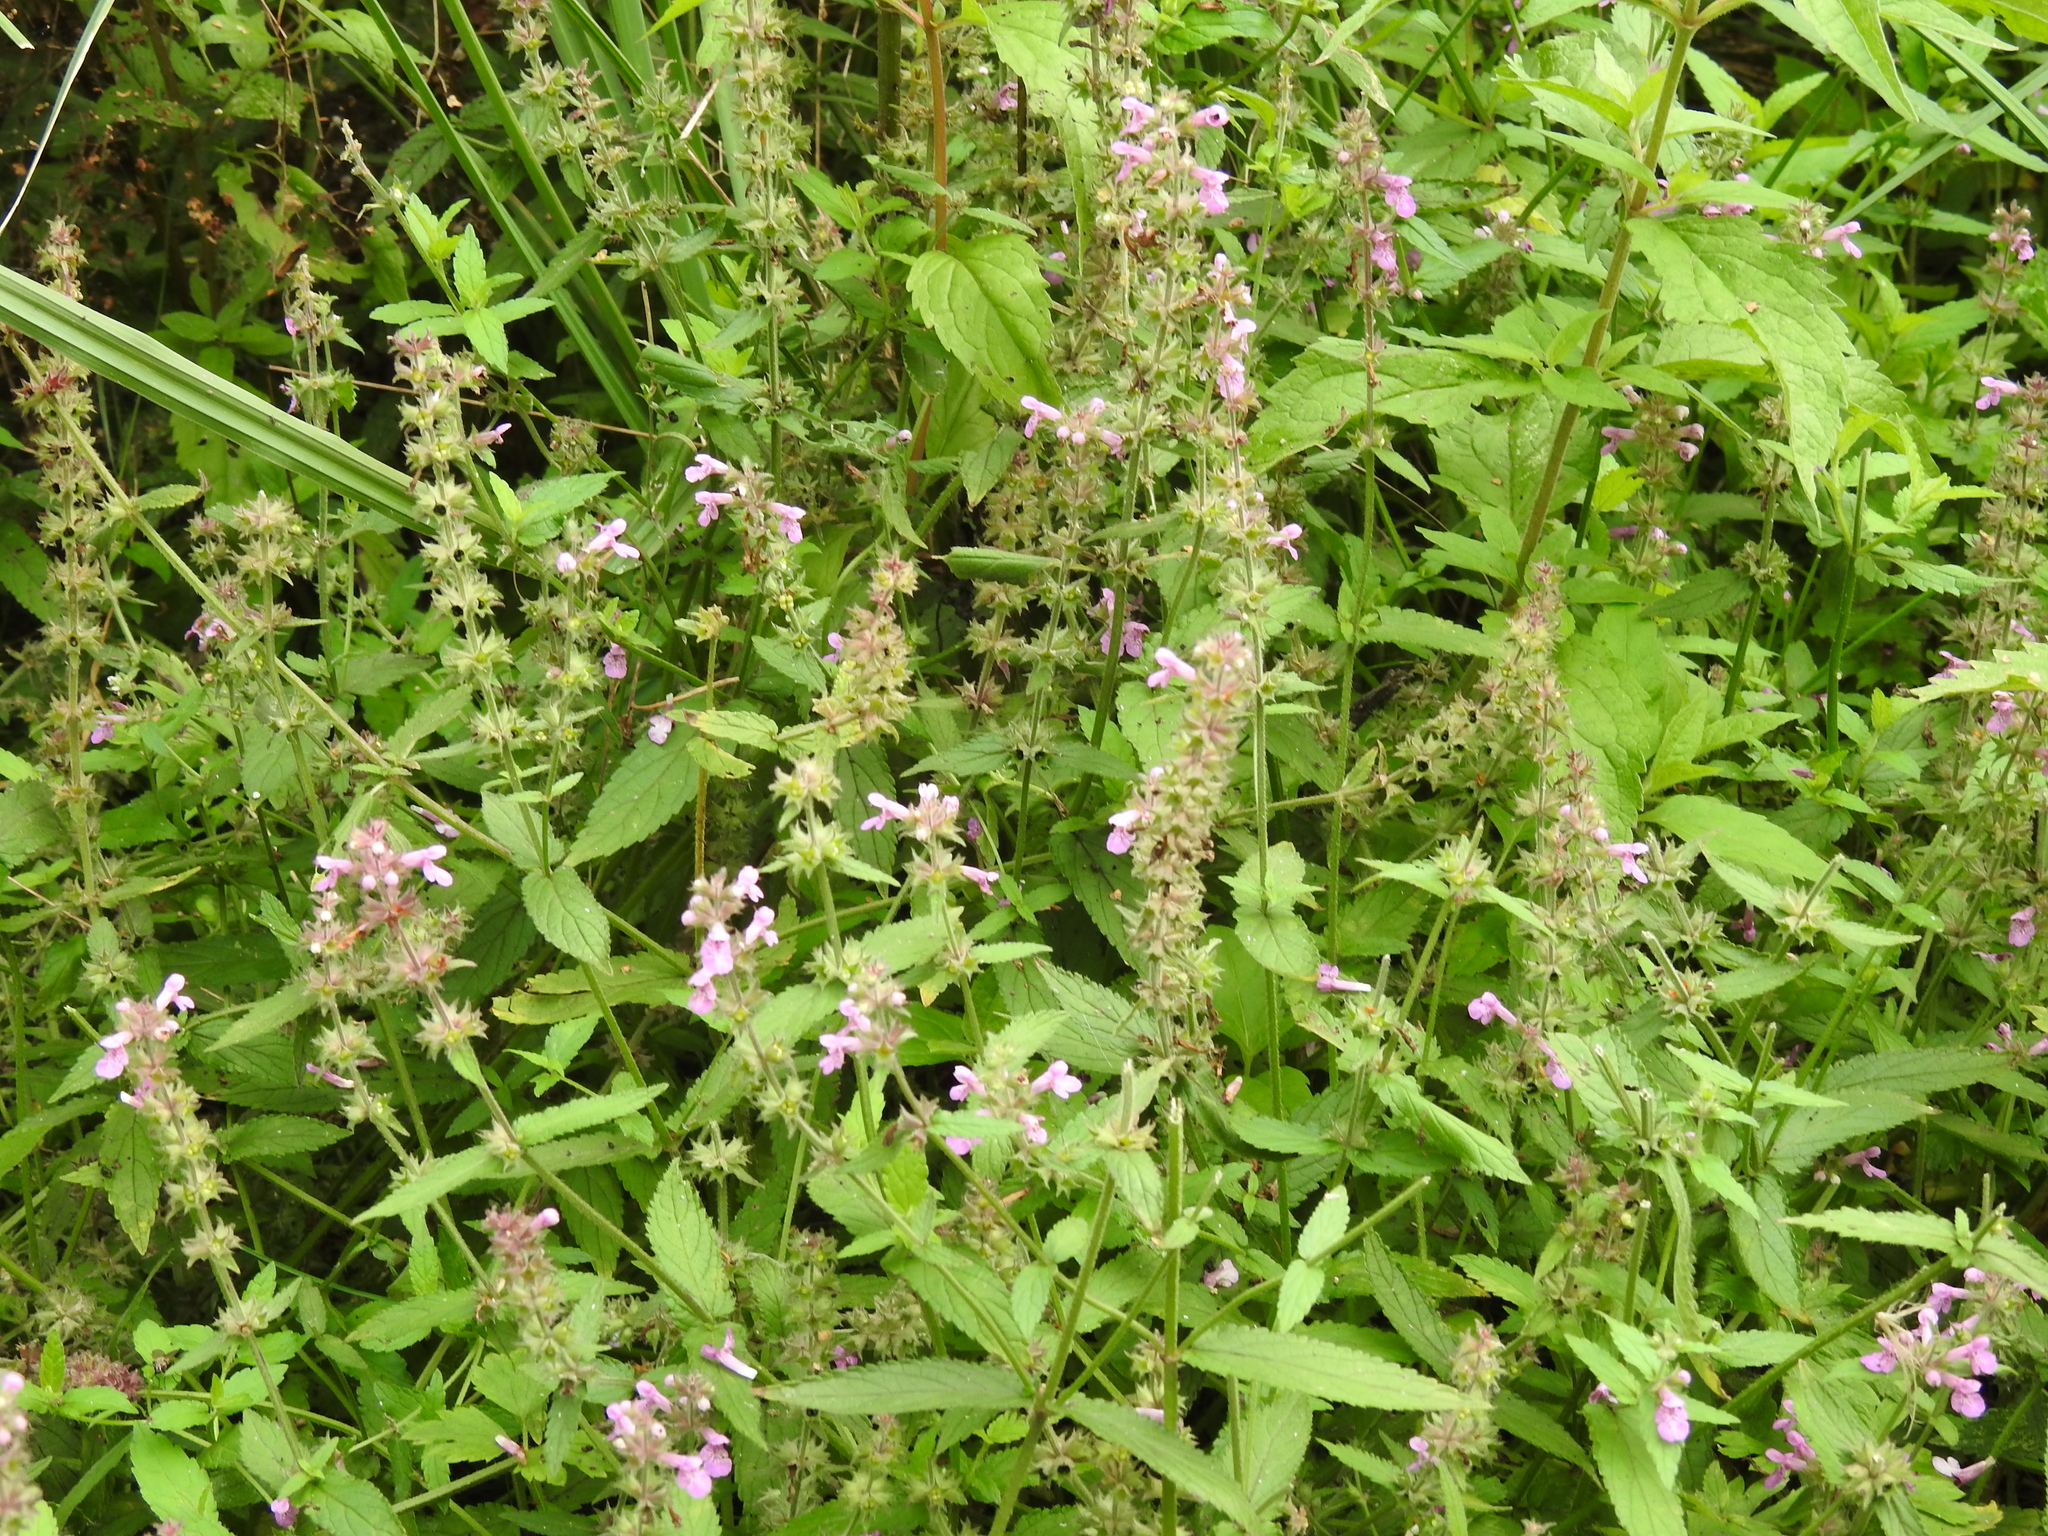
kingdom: Plantae
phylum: Tracheophyta
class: Magnoliopsida
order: Lamiales
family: Lamiaceae
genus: Stachys
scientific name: Stachys palustris
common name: Marsh woundwort
